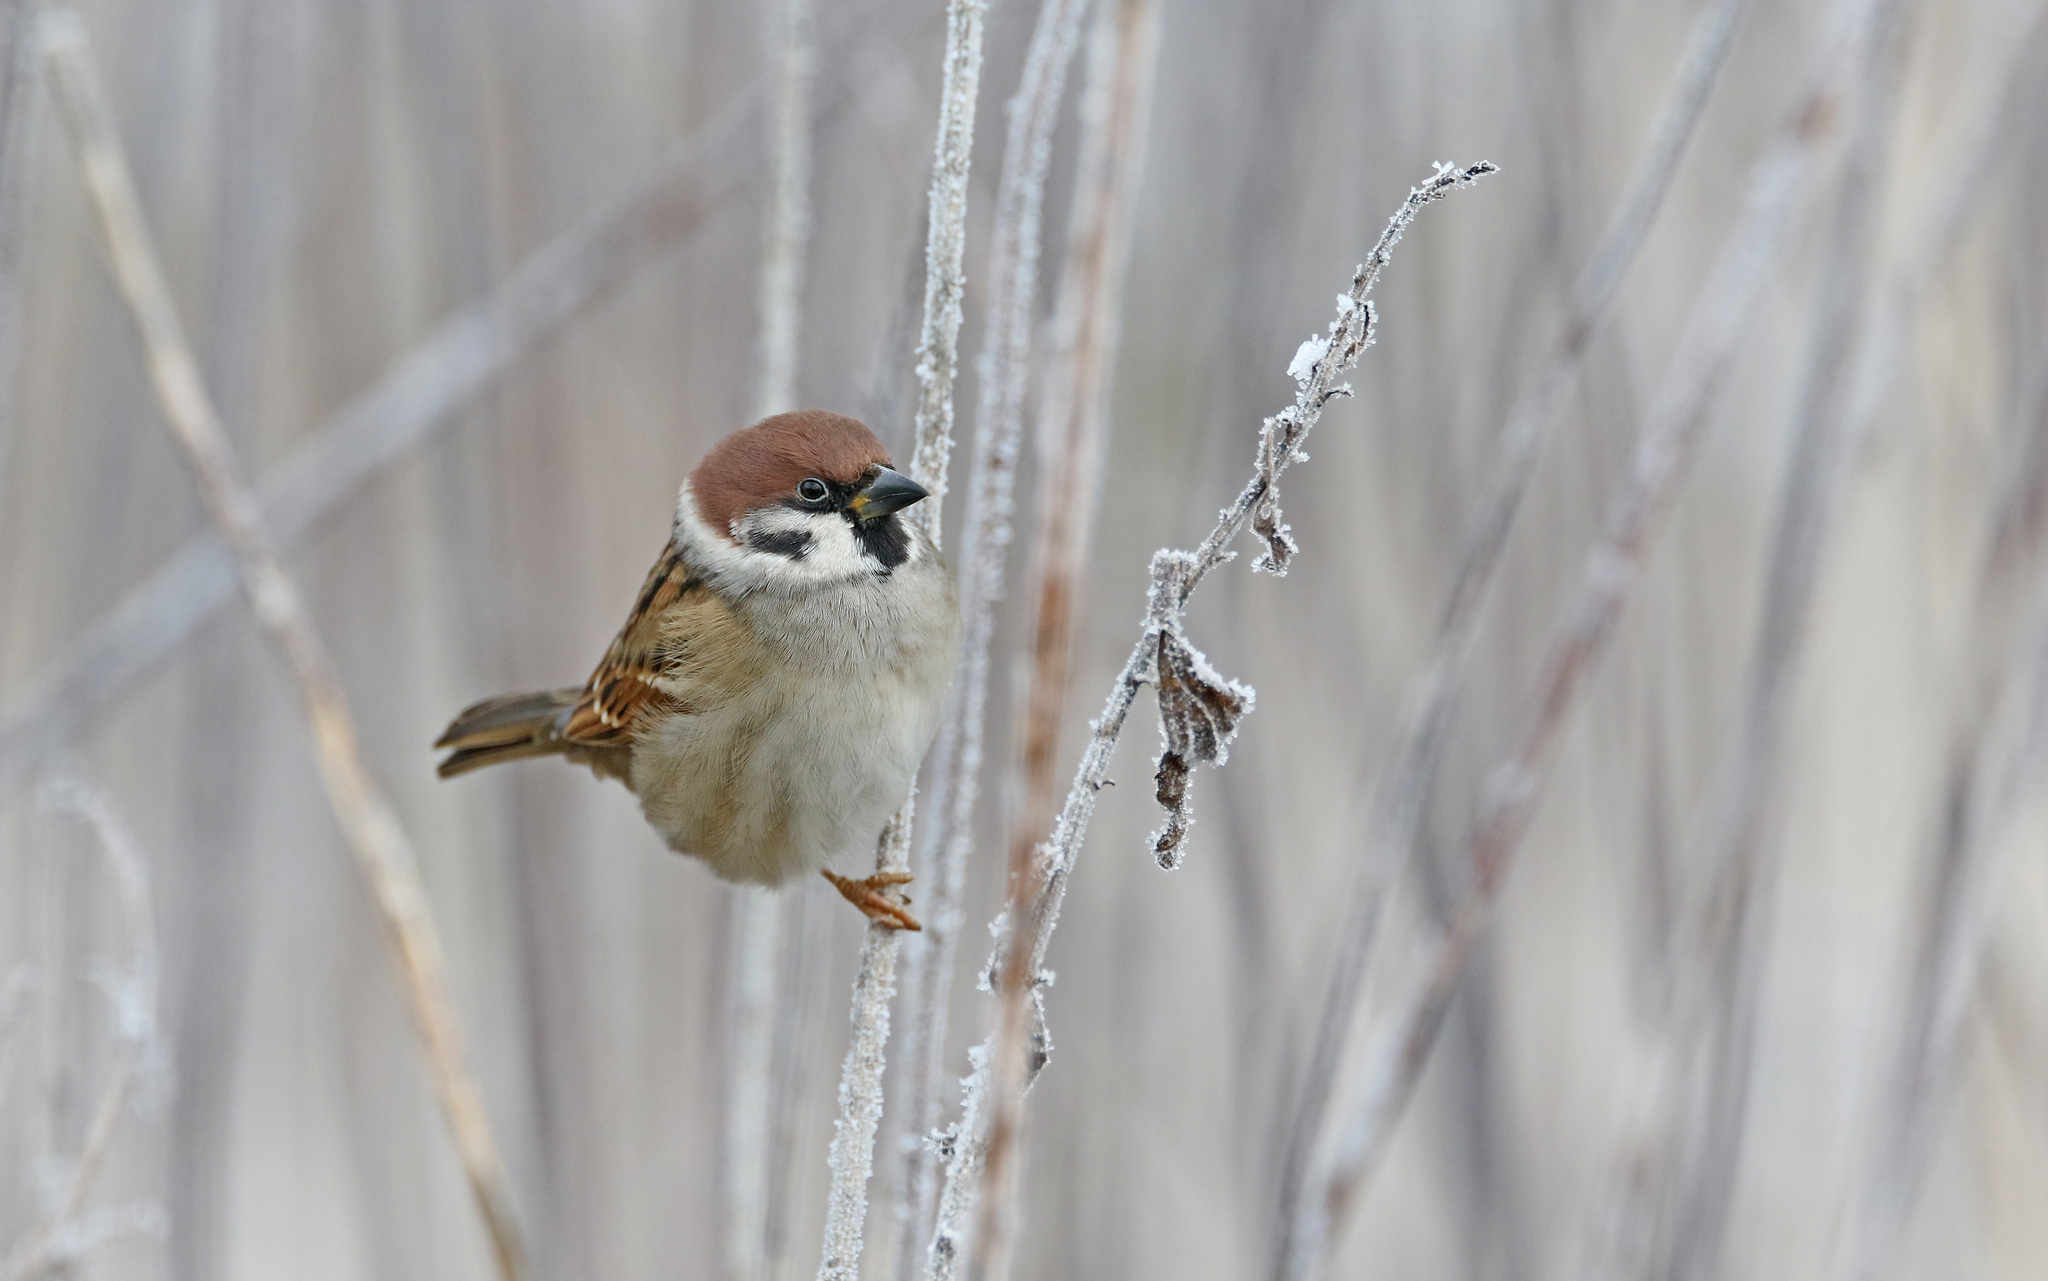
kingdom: Animalia
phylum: Chordata
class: Aves
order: Passeriformes
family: Passeridae
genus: Passer
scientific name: Passer montanus
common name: Eurasian tree sparrow
